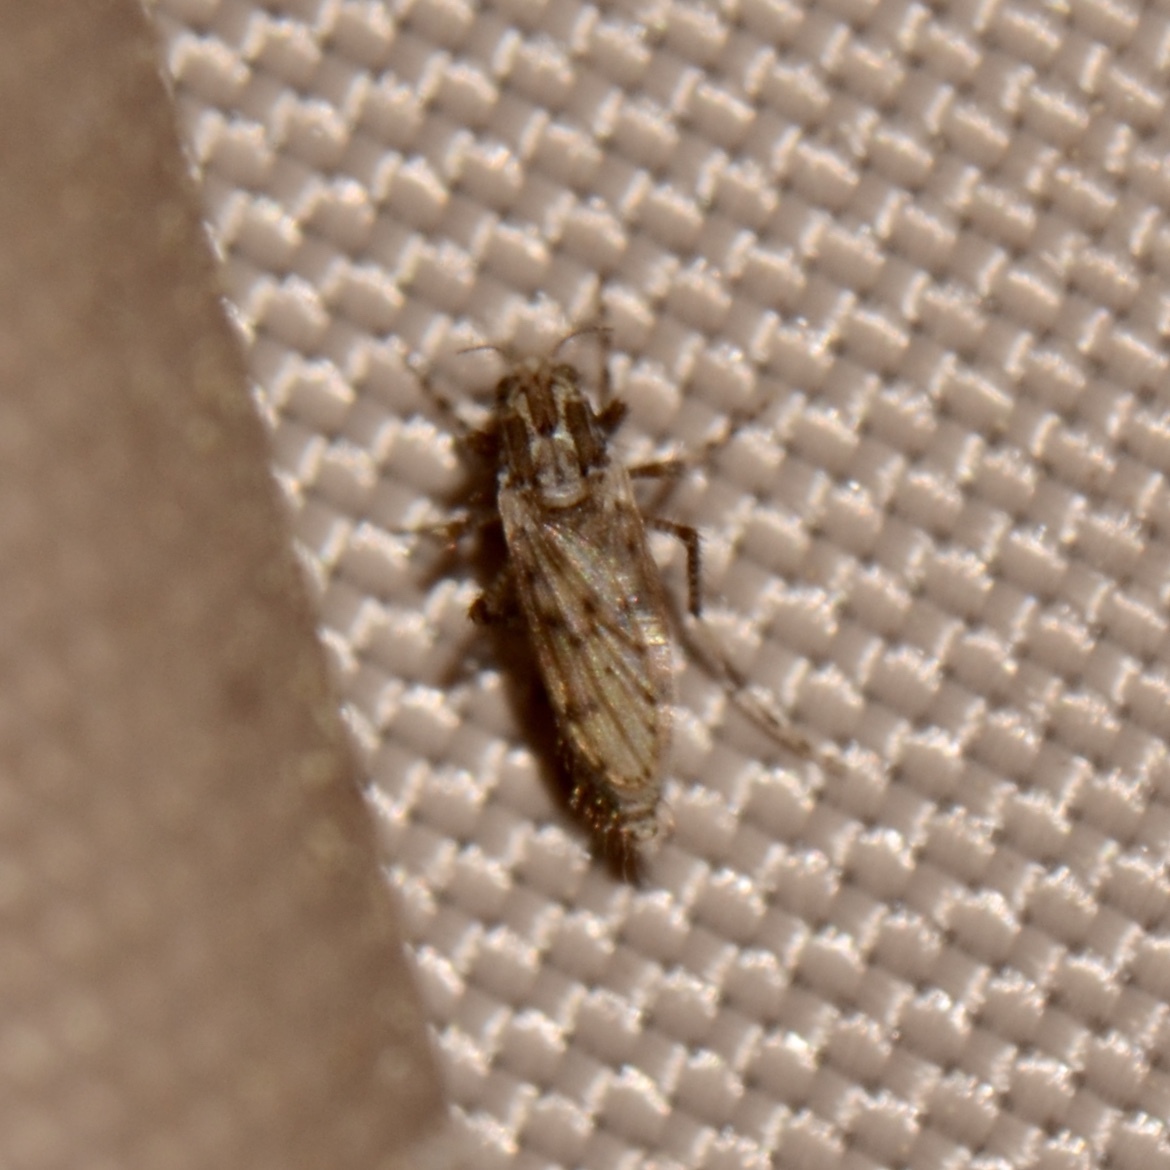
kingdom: Animalia
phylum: Arthropoda
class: Insecta
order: Diptera
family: Chaoboridae
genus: Chaoborus
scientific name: Chaoborus punctipennis
